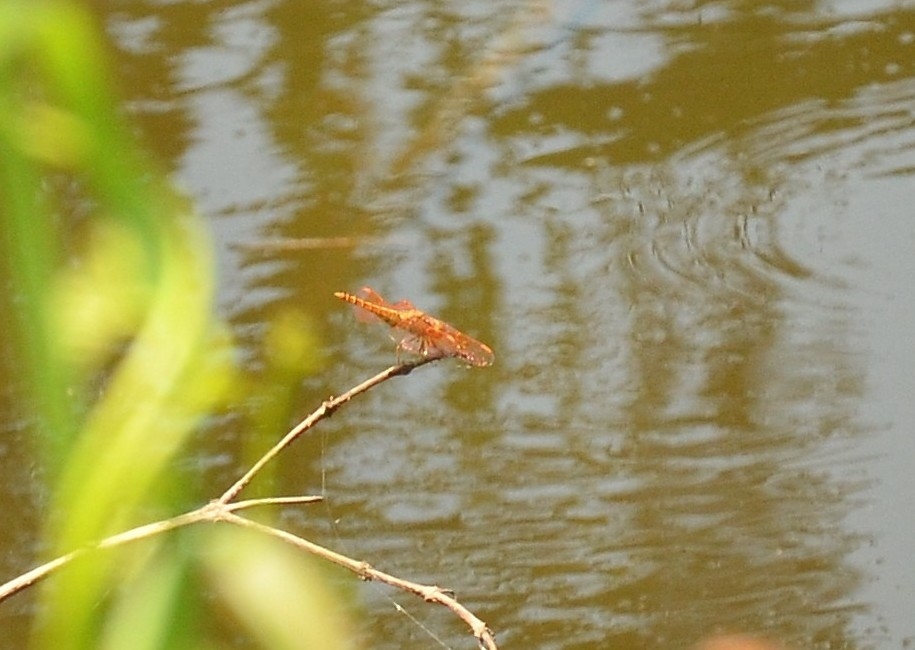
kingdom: Animalia
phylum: Arthropoda
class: Insecta
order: Odonata
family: Libellulidae
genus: Brachythemis
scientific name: Brachythemis contaminata
